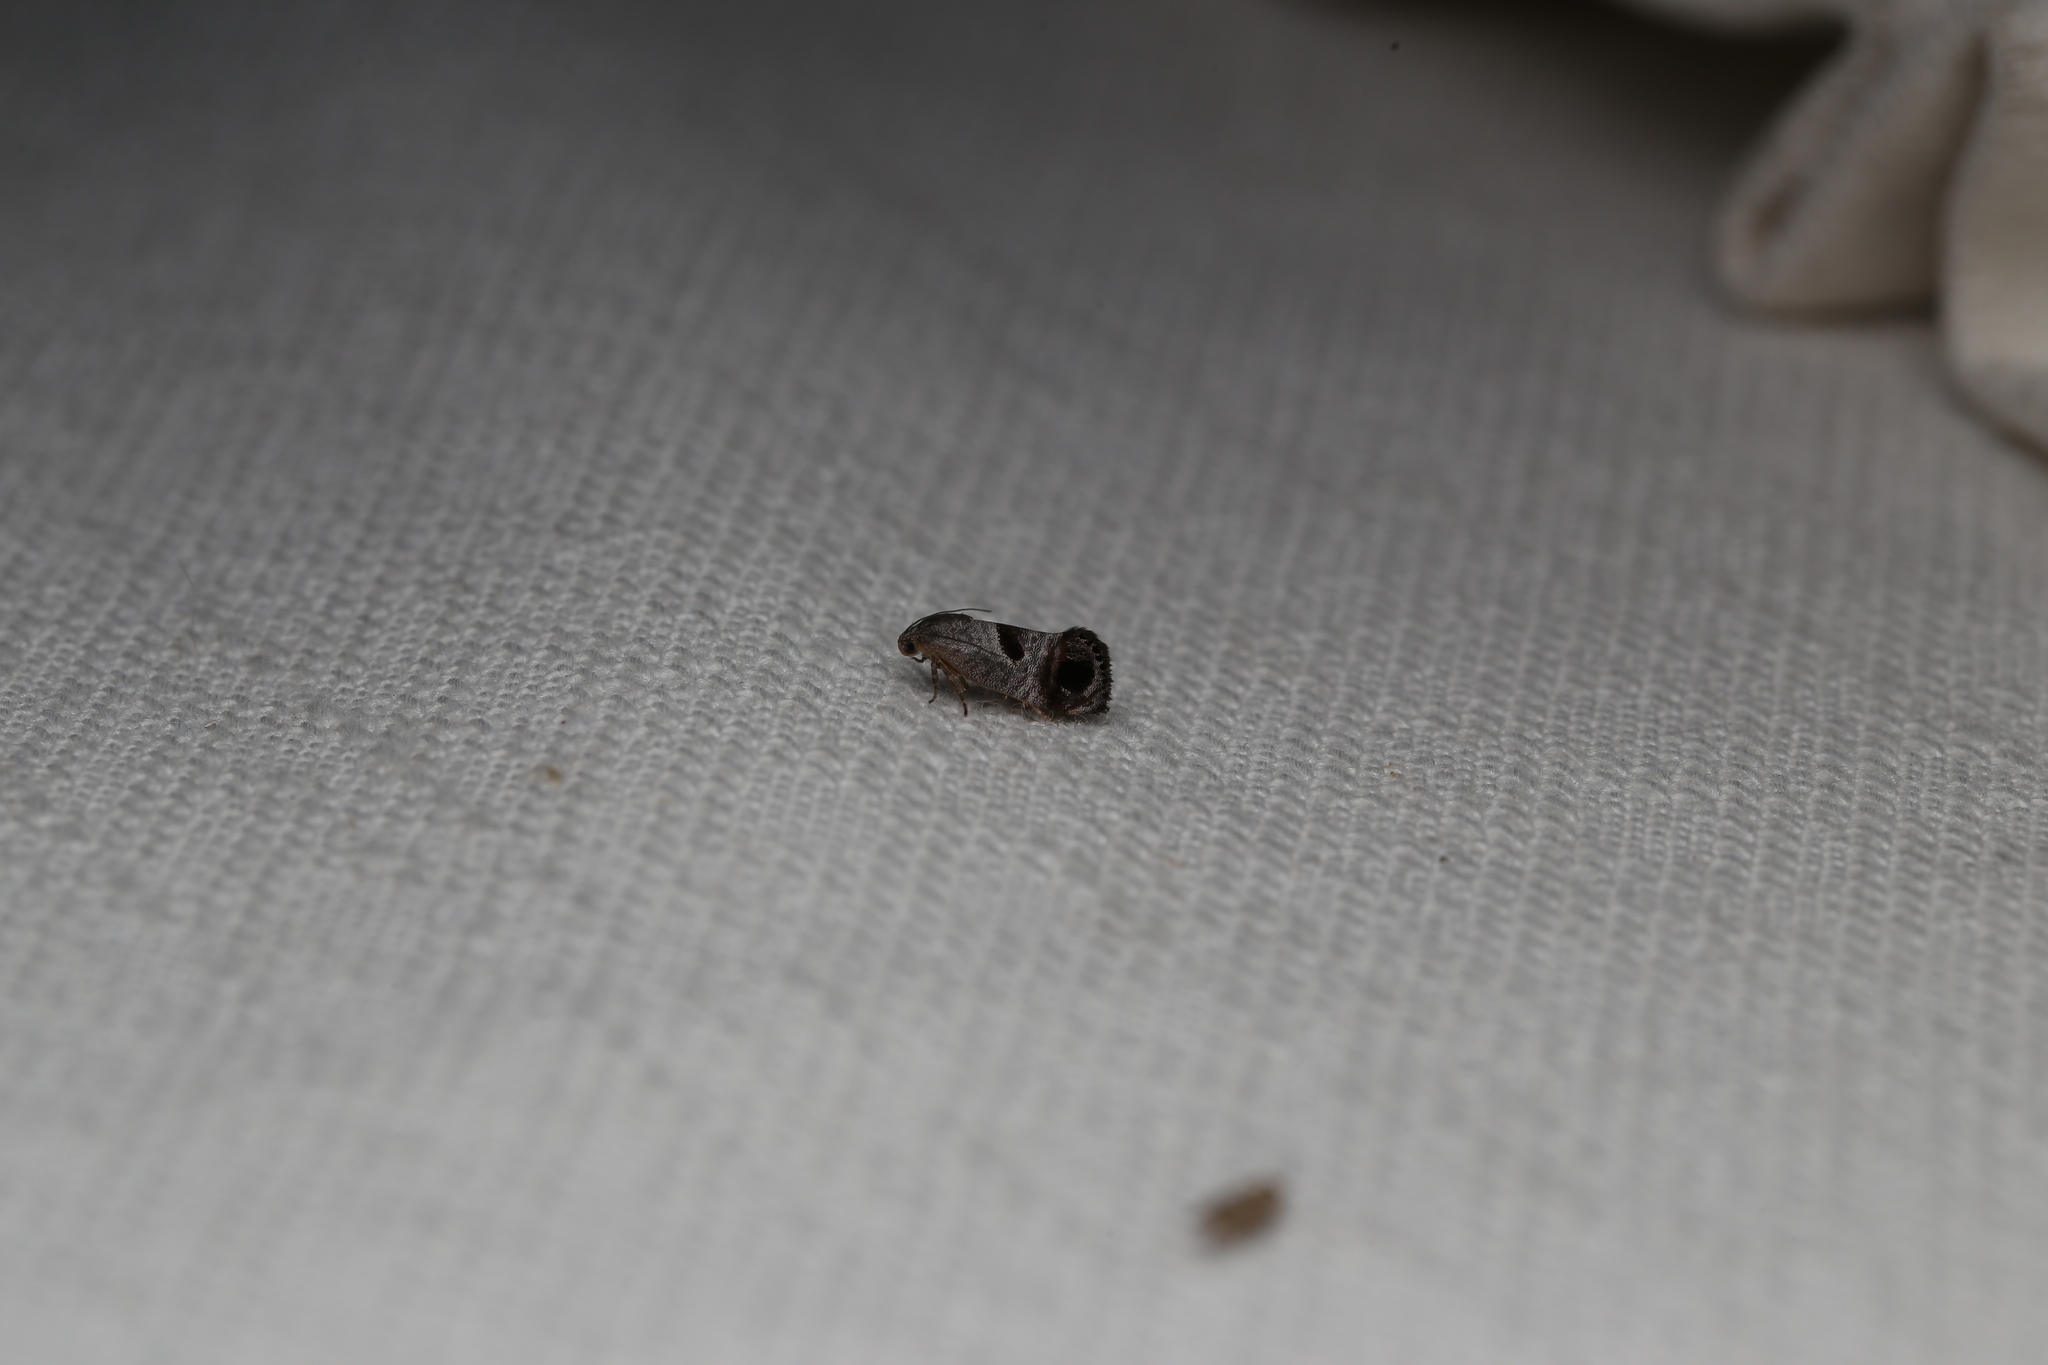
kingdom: Animalia
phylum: Arthropoda
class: Insecta
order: Lepidoptera
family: Depressariidae
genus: Eupselia
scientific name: Eupselia beatella
